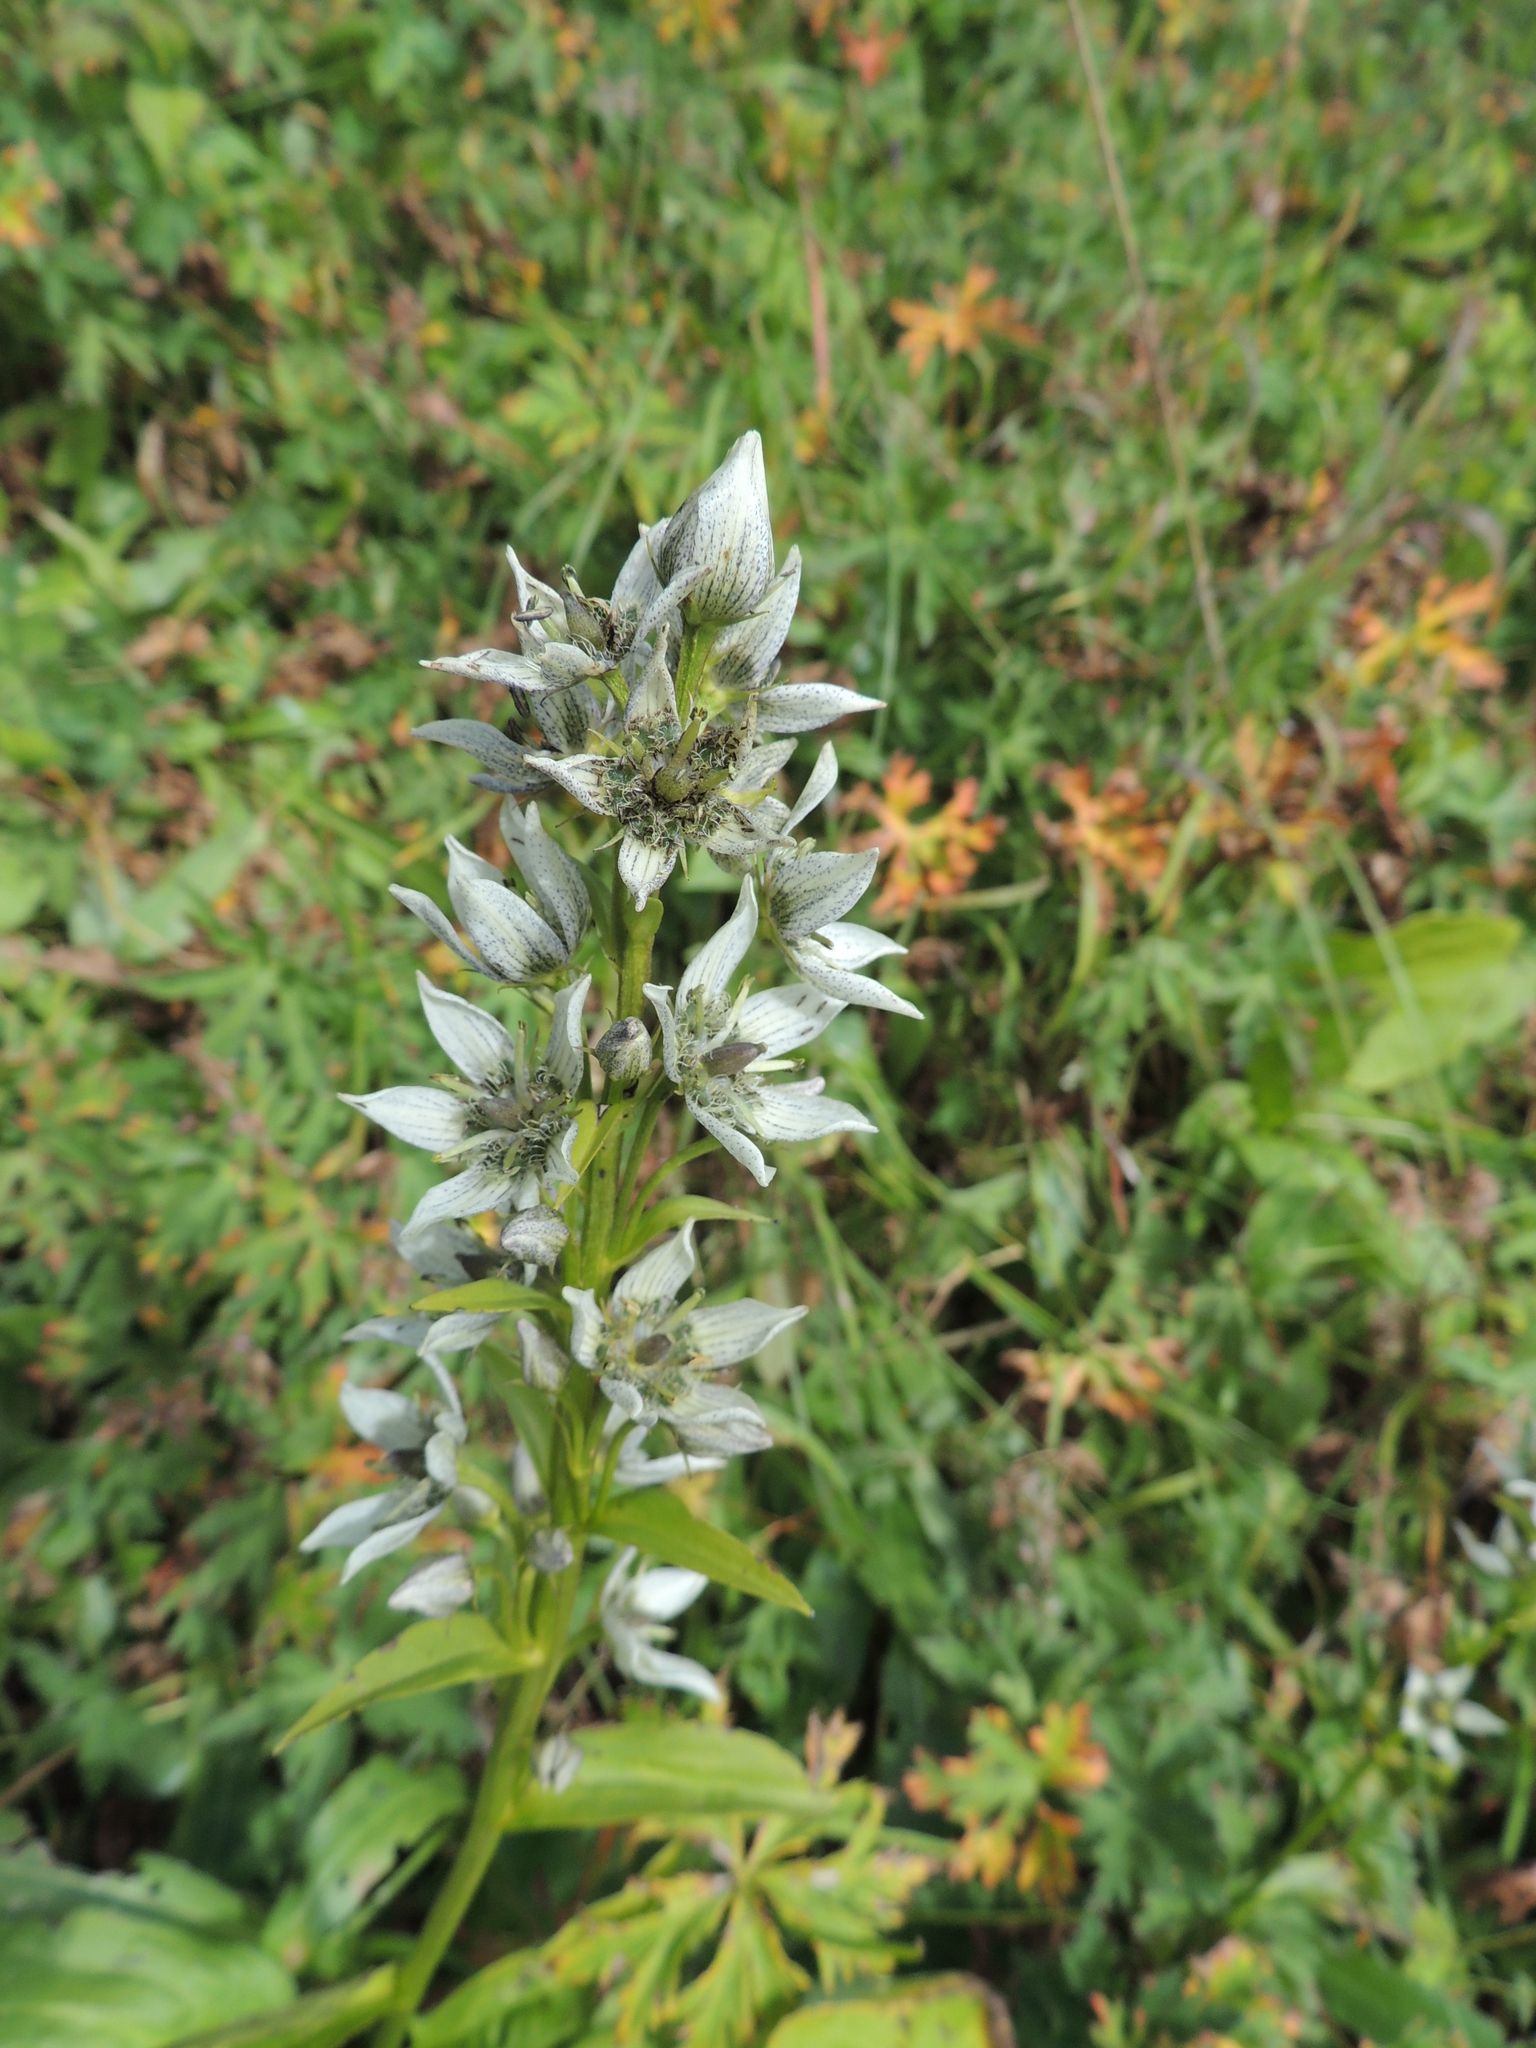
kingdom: Plantae
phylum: Tracheophyta
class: Magnoliopsida
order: Gentianales
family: Gentianaceae
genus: Swertia
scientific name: Swertia iberica
